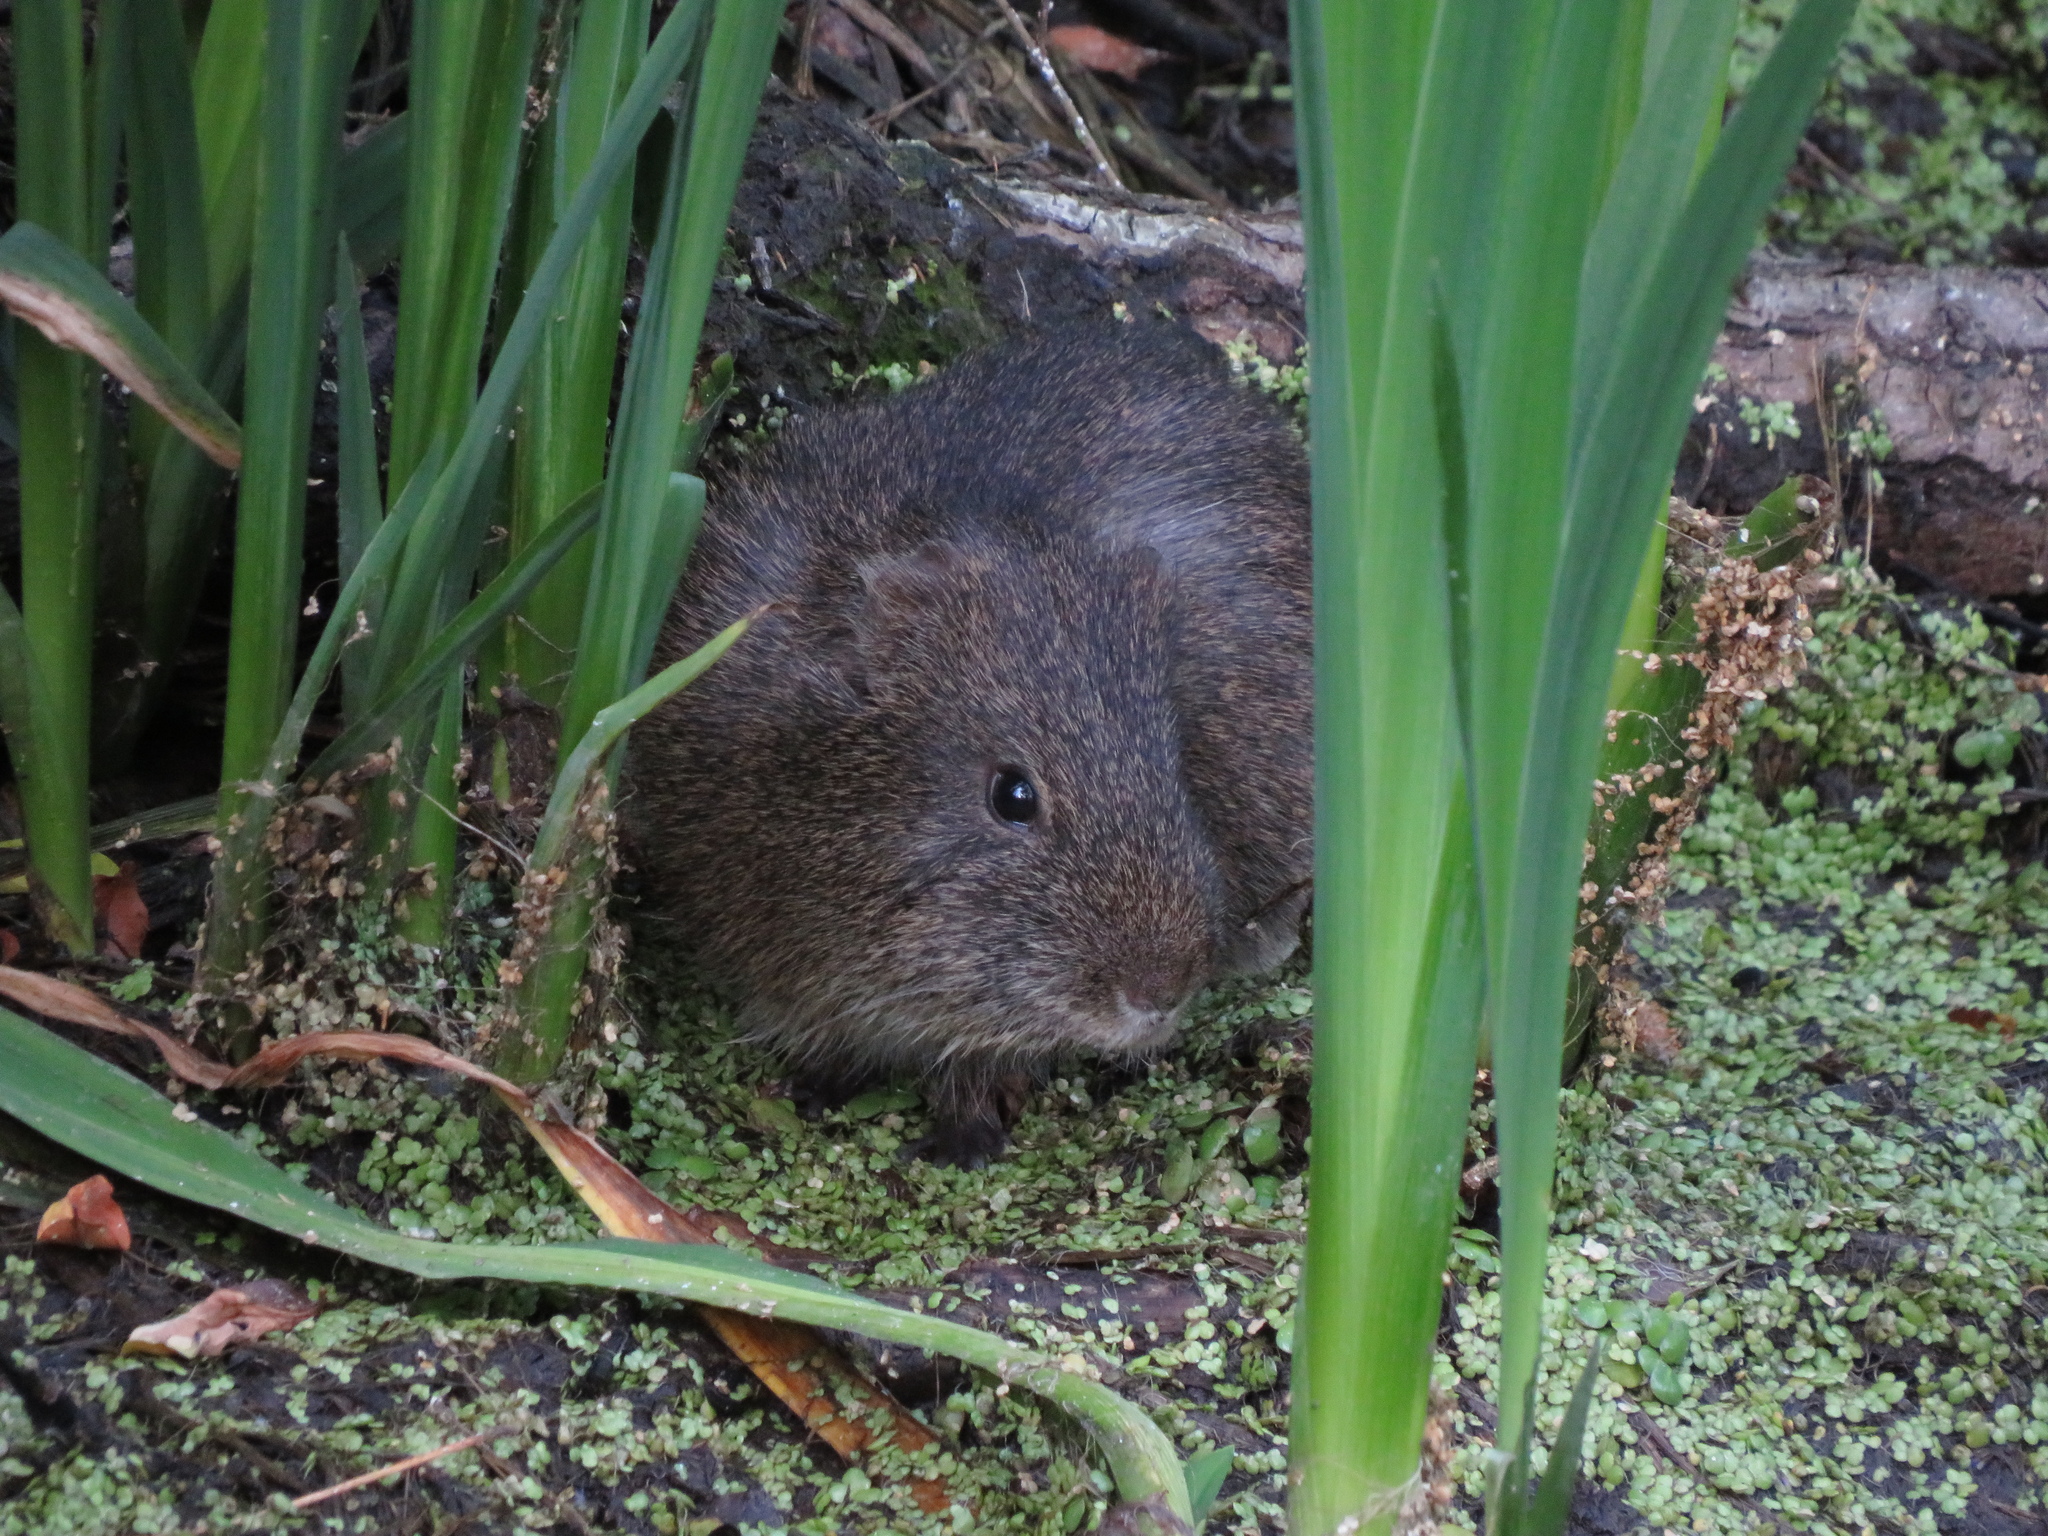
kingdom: Animalia
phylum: Chordata
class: Mammalia
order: Rodentia
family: Caviidae
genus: Cavia
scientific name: Cavia aperea
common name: Brazilian guinea pig
